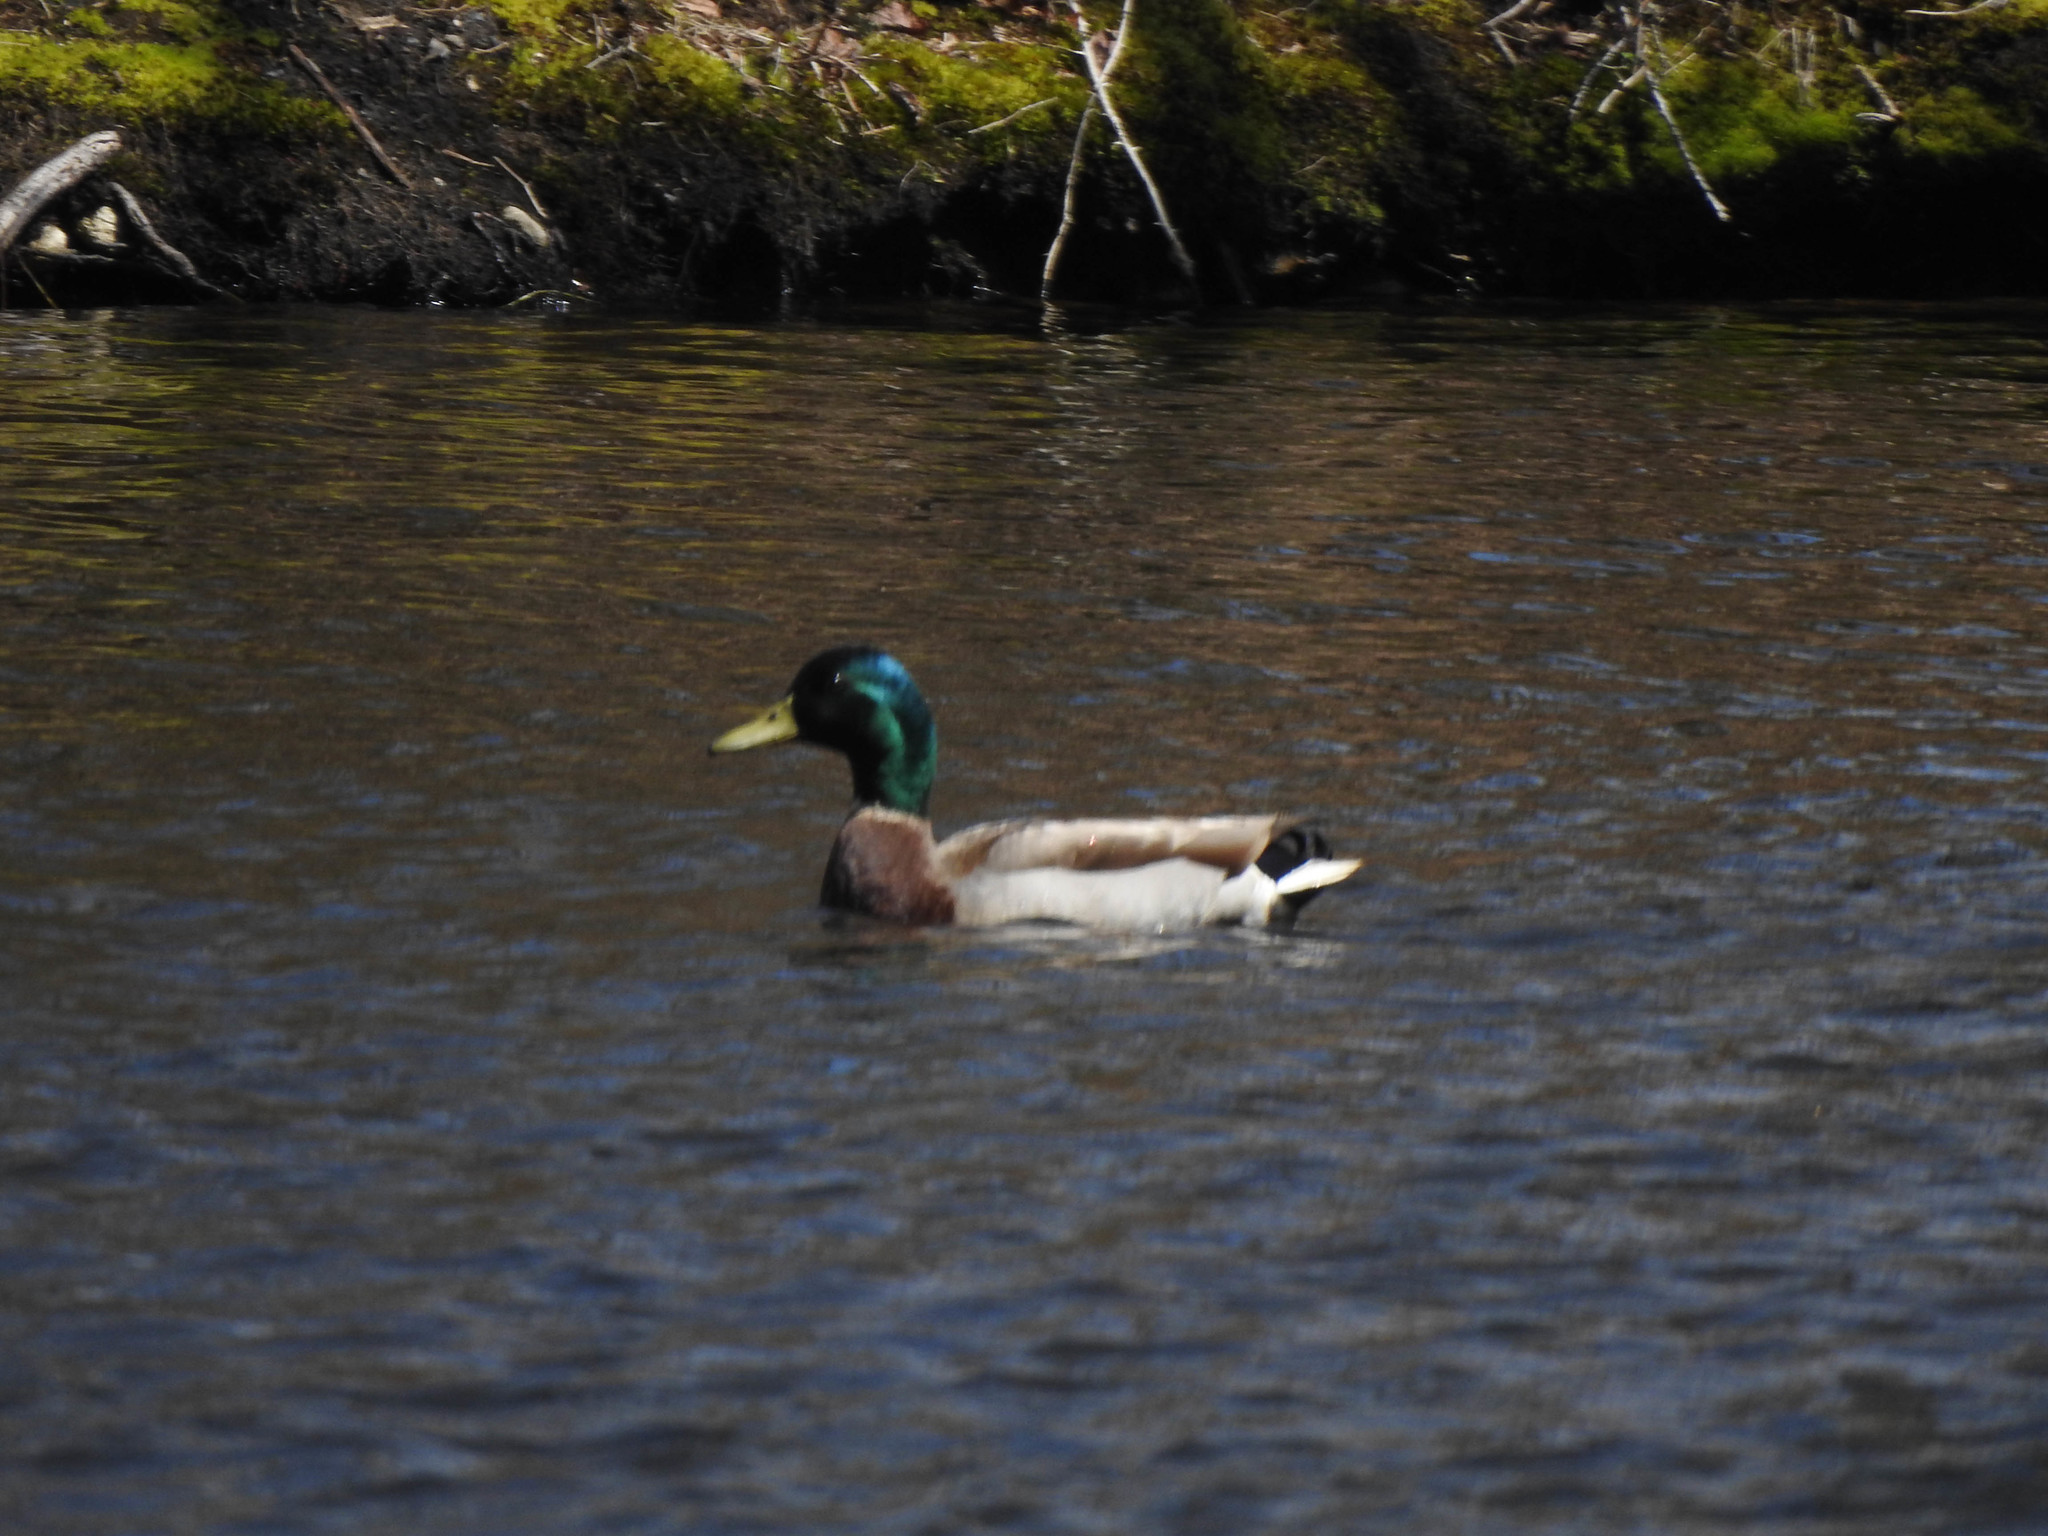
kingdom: Animalia
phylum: Chordata
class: Aves
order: Anseriformes
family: Anatidae
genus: Anas
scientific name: Anas platyrhynchos
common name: Mallard
